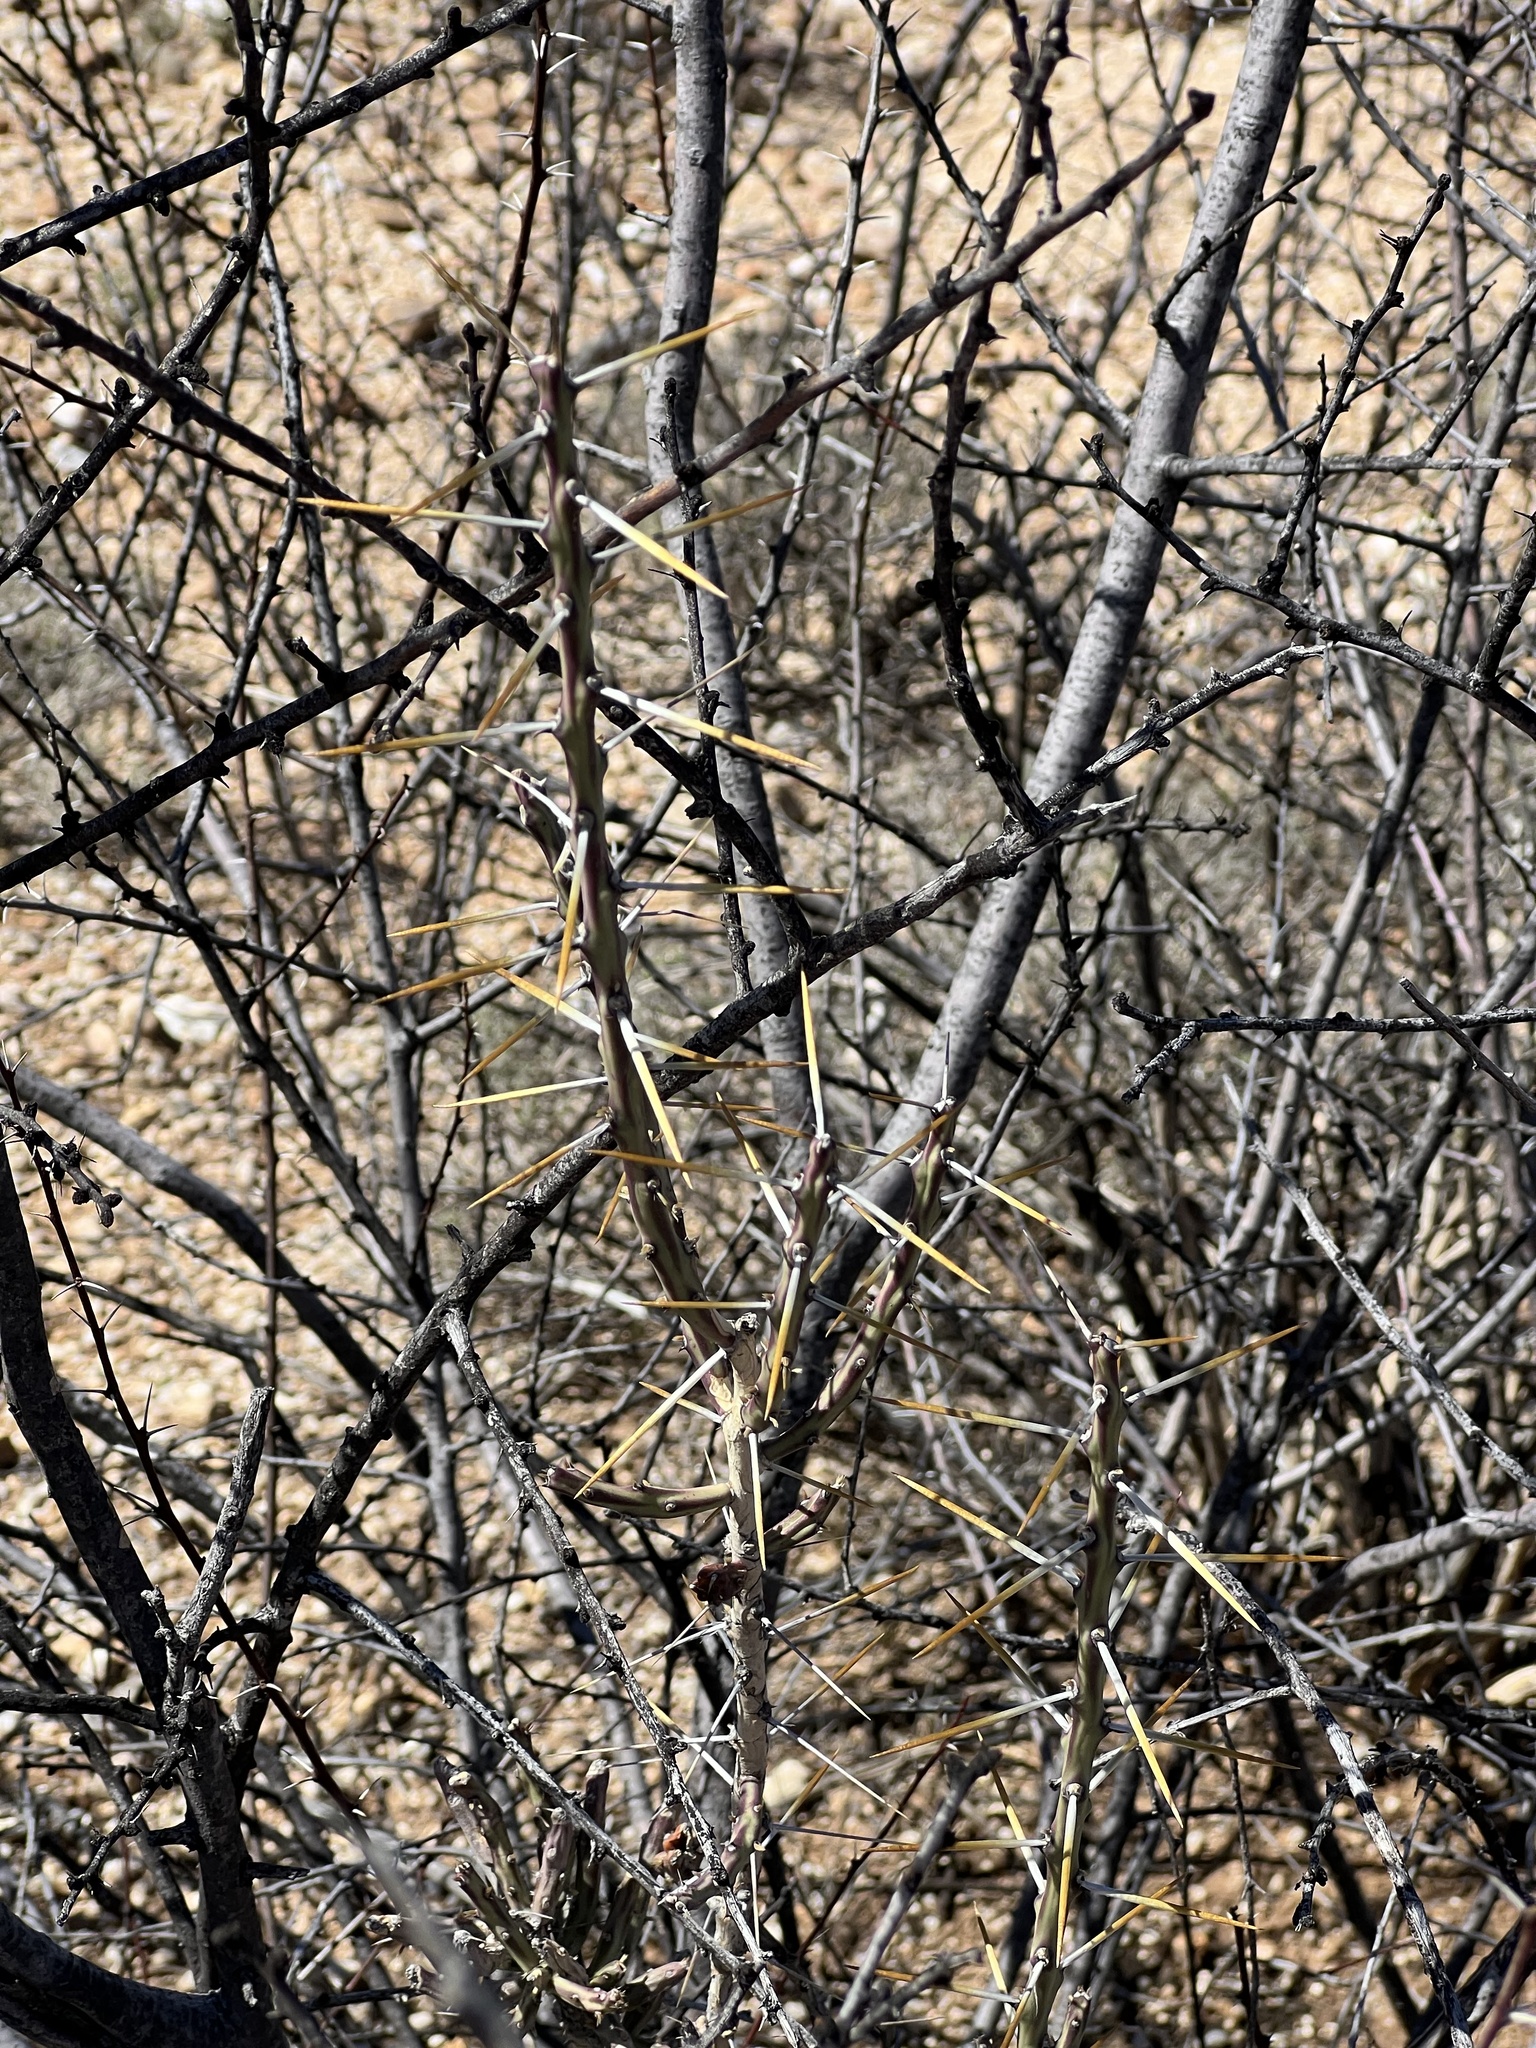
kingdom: Plantae
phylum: Tracheophyta
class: Magnoliopsida
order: Caryophyllales
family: Cactaceae
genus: Cylindropuntia
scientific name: Cylindropuntia leptocaulis
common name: Christmas cactus
